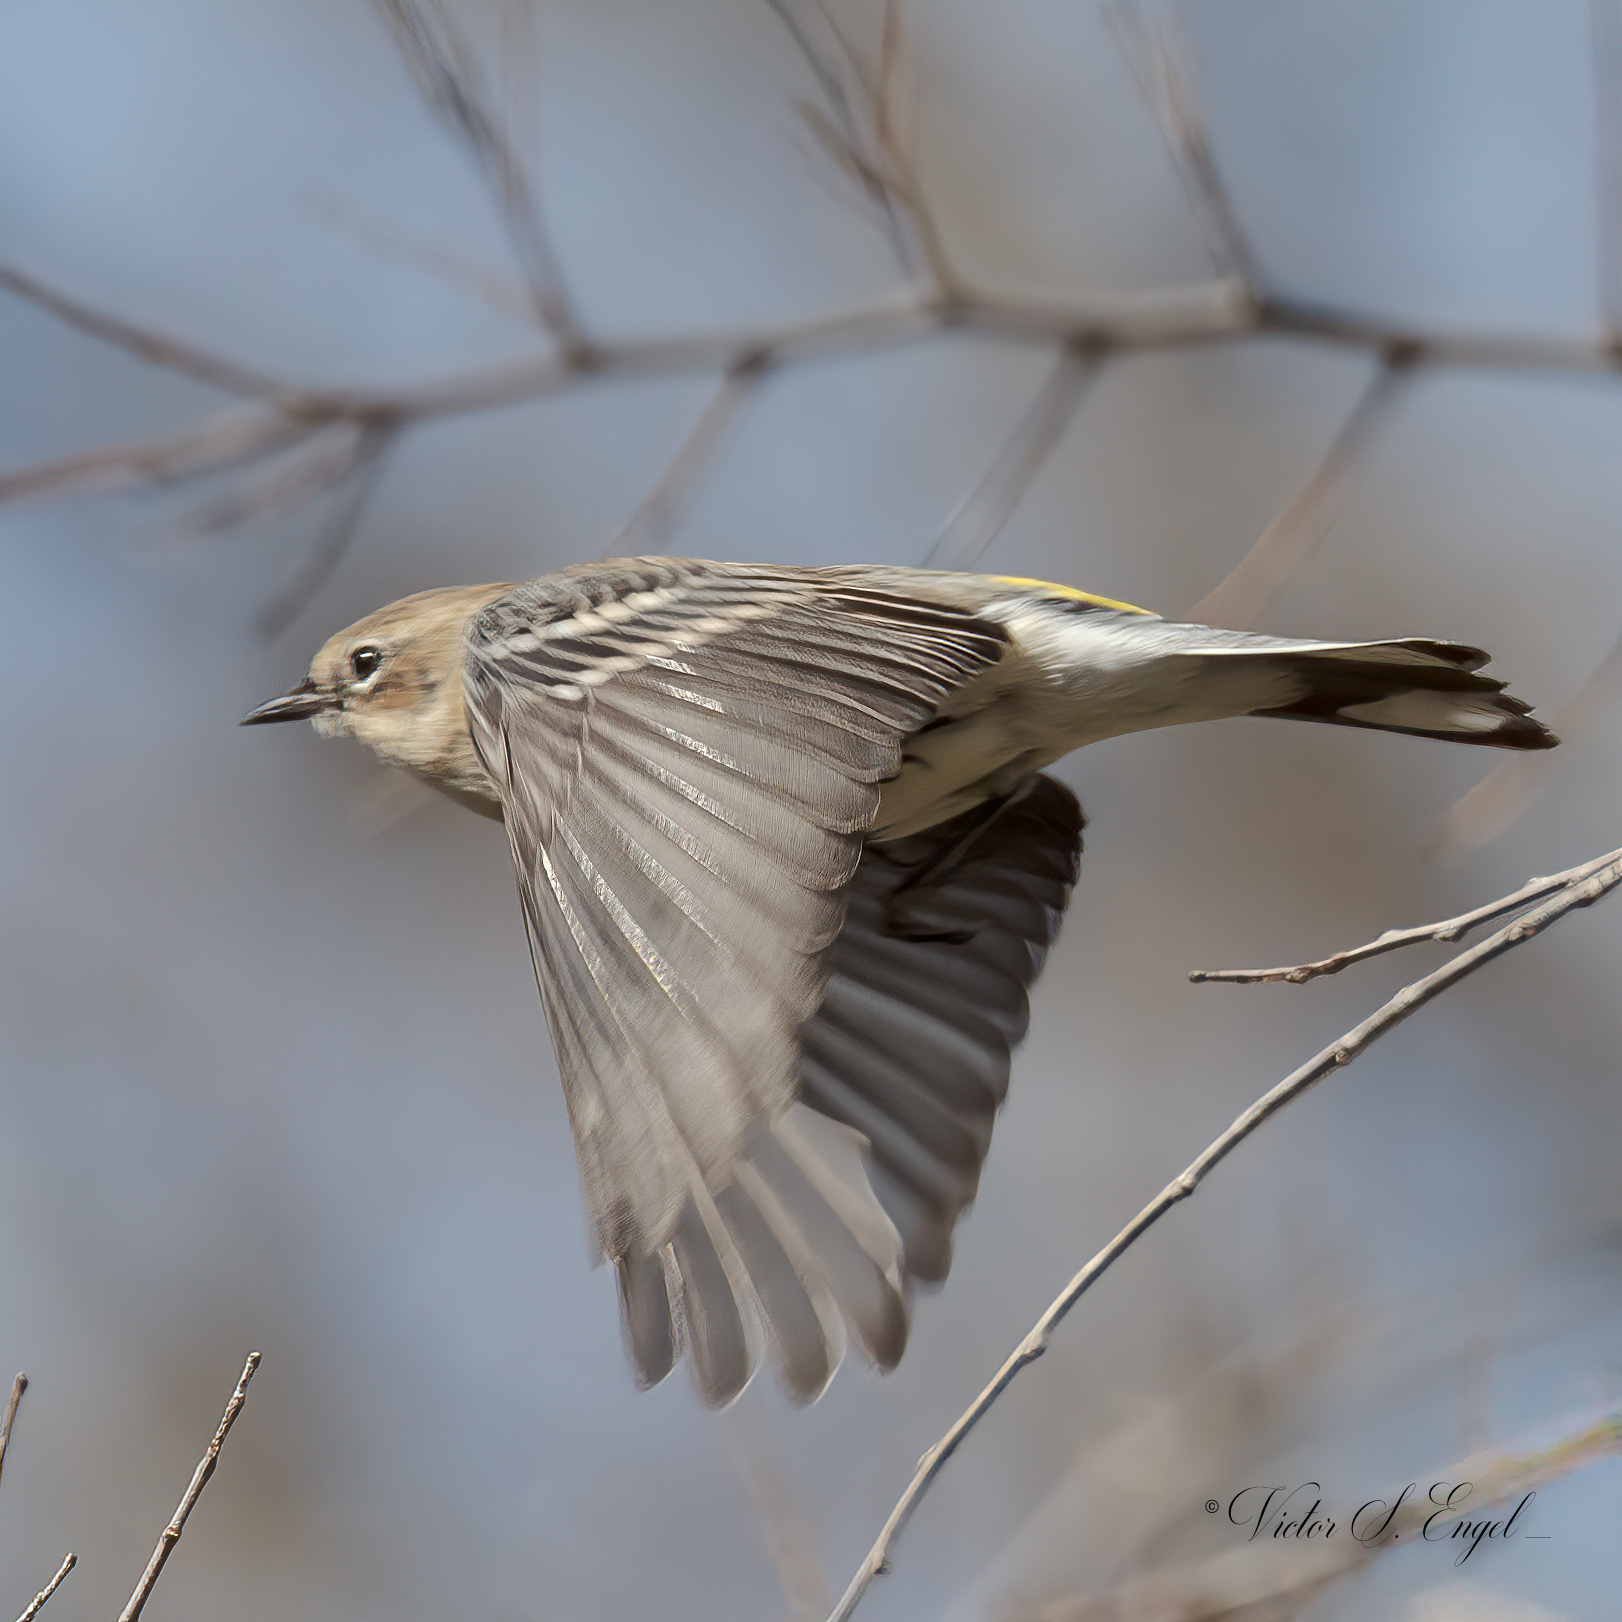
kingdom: Animalia
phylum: Chordata
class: Aves
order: Passeriformes
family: Parulidae
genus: Setophaga
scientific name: Setophaga coronata
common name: Myrtle warbler
